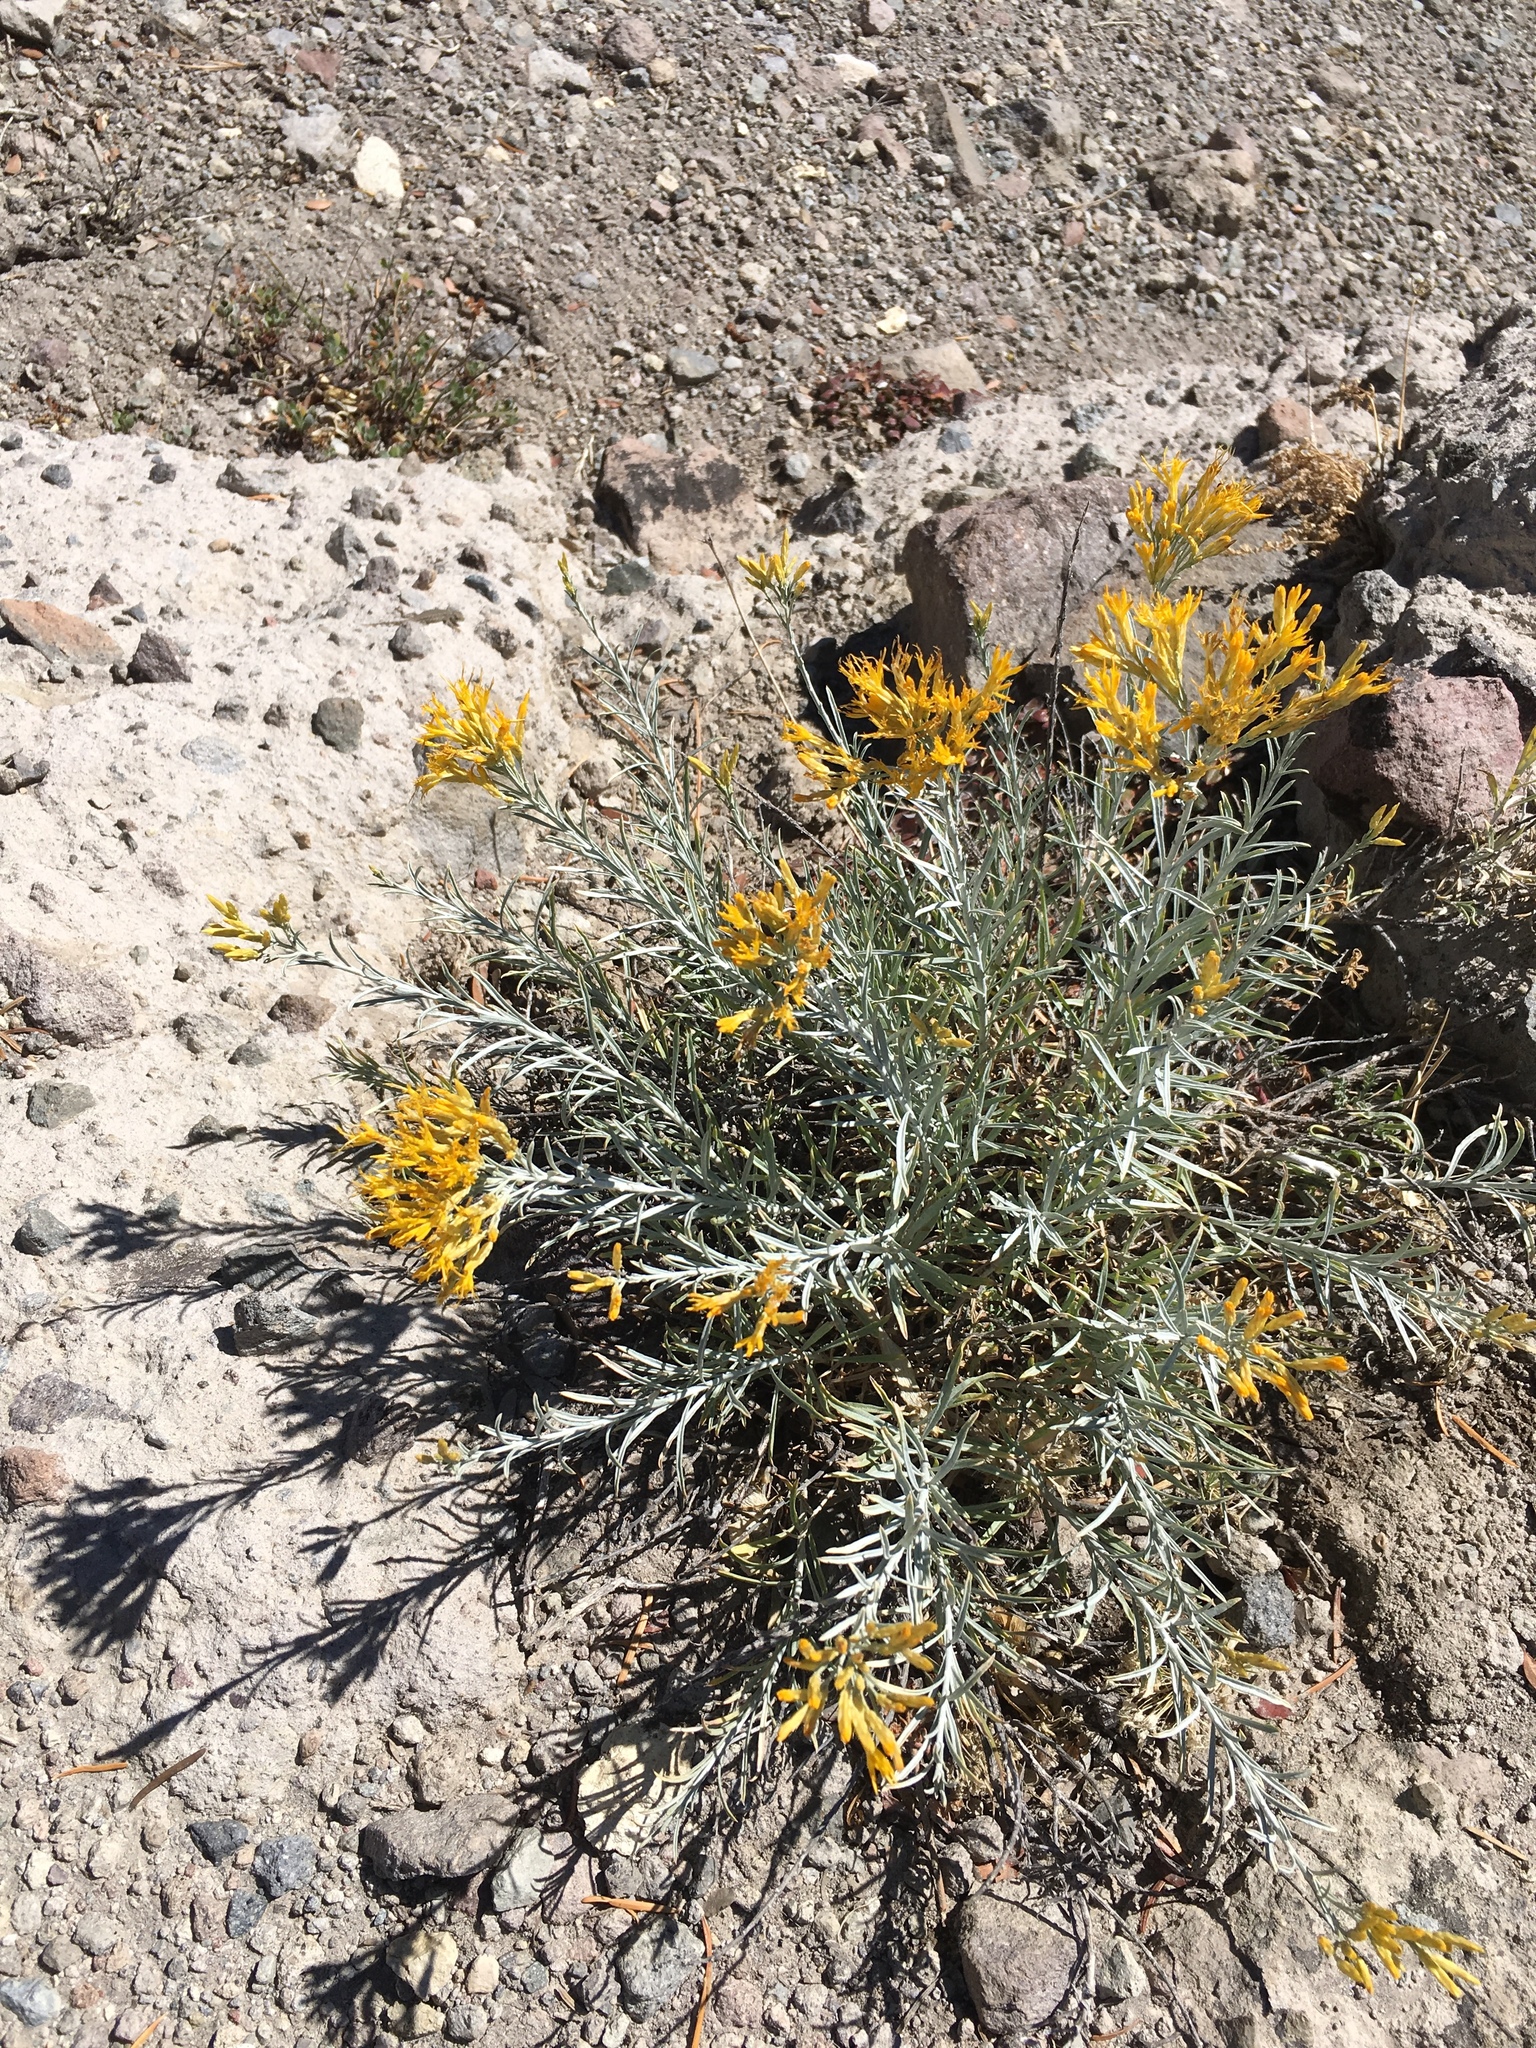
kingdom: Plantae
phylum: Tracheophyta
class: Magnoliopsida
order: Asterales
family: Asteraceae
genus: Ericameria
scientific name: Ericameria nauseosa
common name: Rubber rabbitbrush
